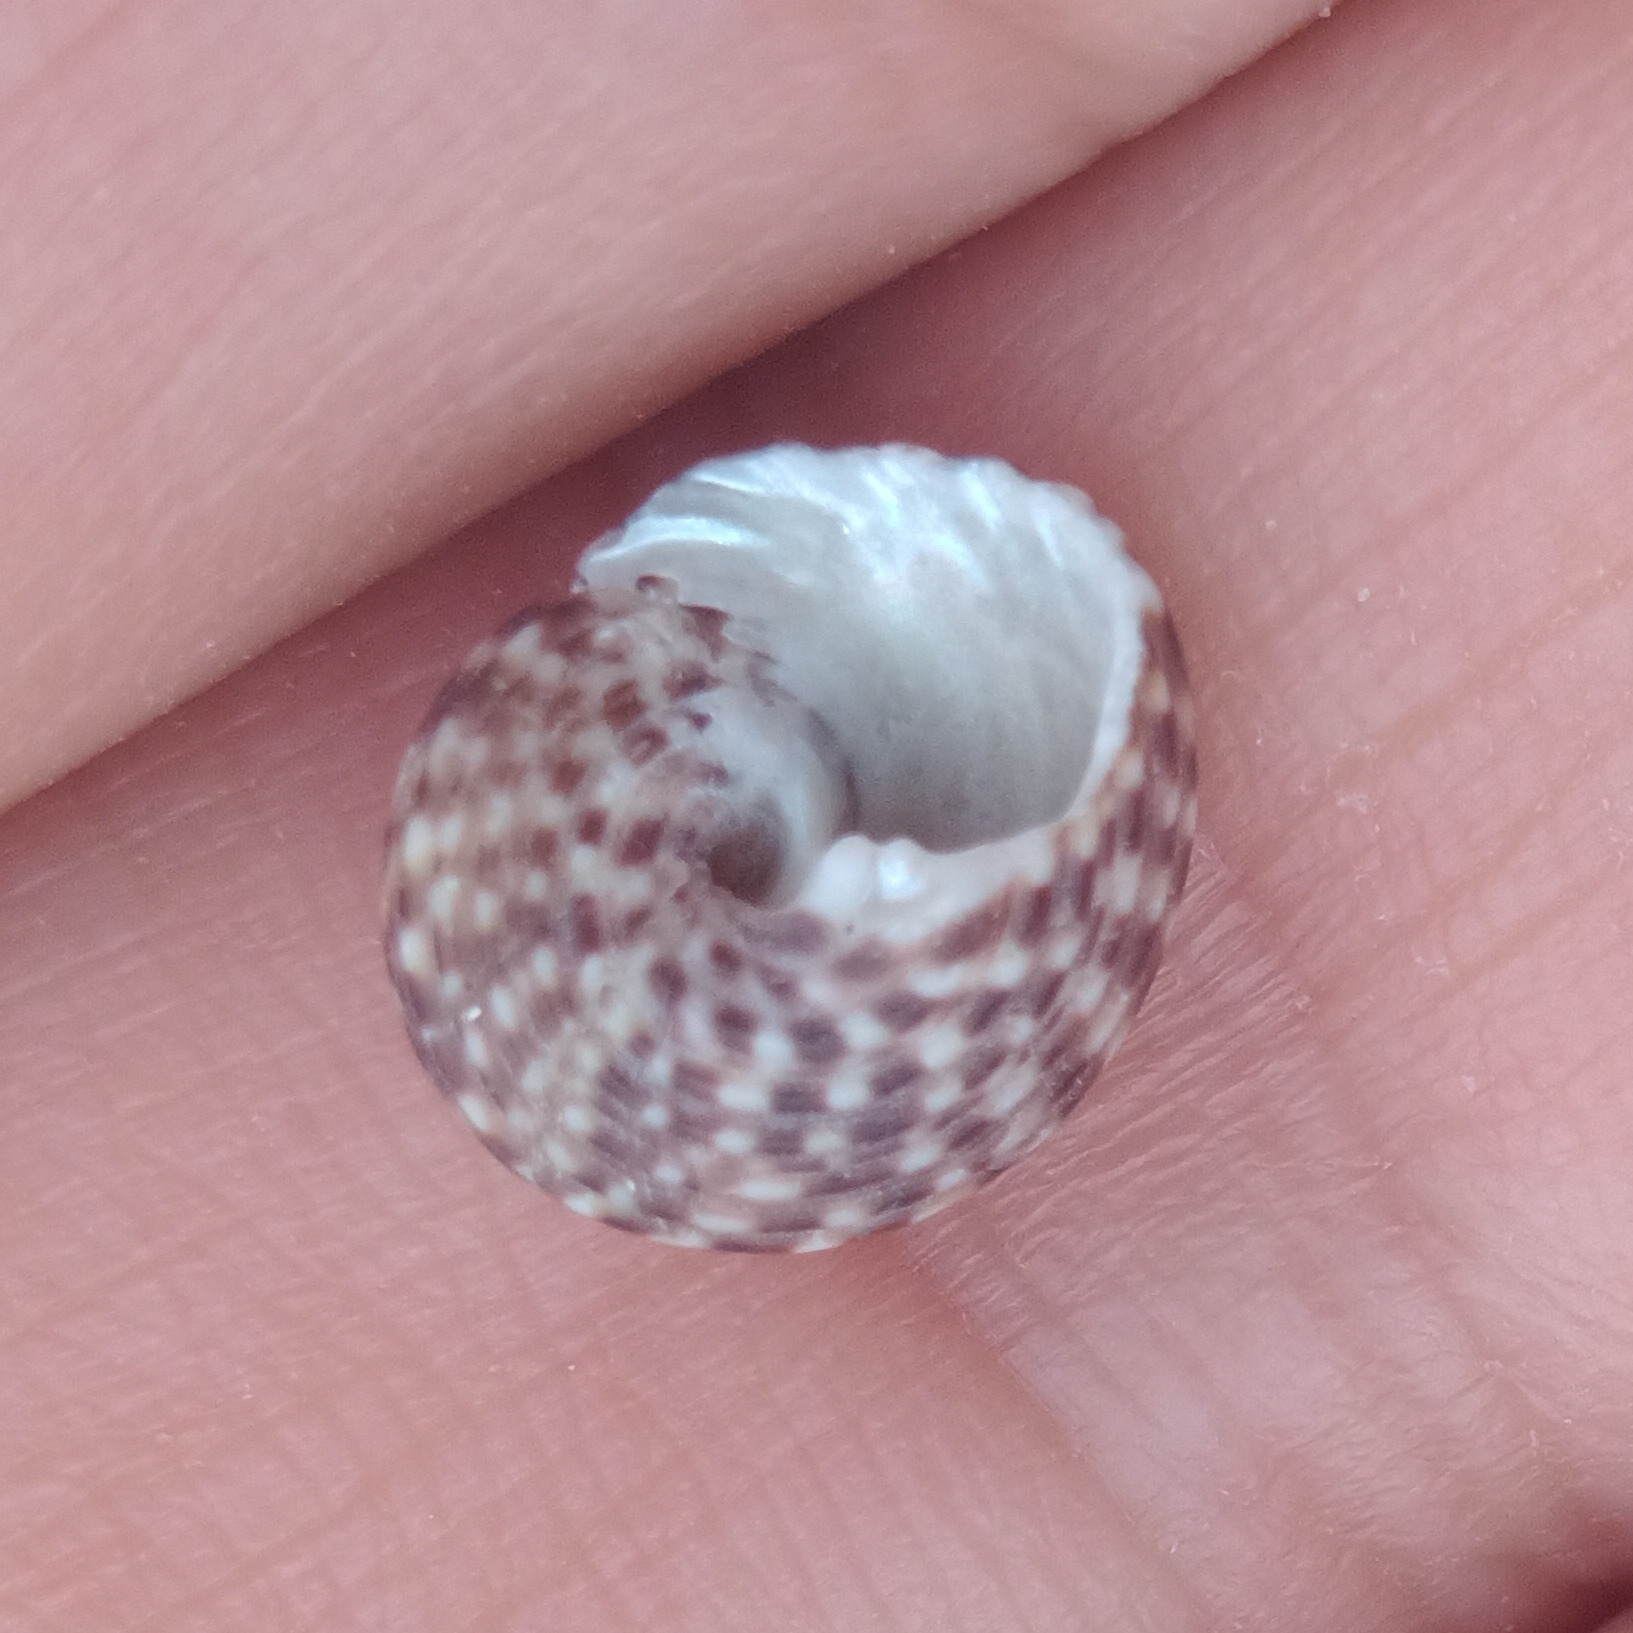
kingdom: Animalia
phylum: Mollusca
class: Gastropoda
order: Trochida
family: Tegulidae
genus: Agathistoma
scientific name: Agathistoma viridulum
